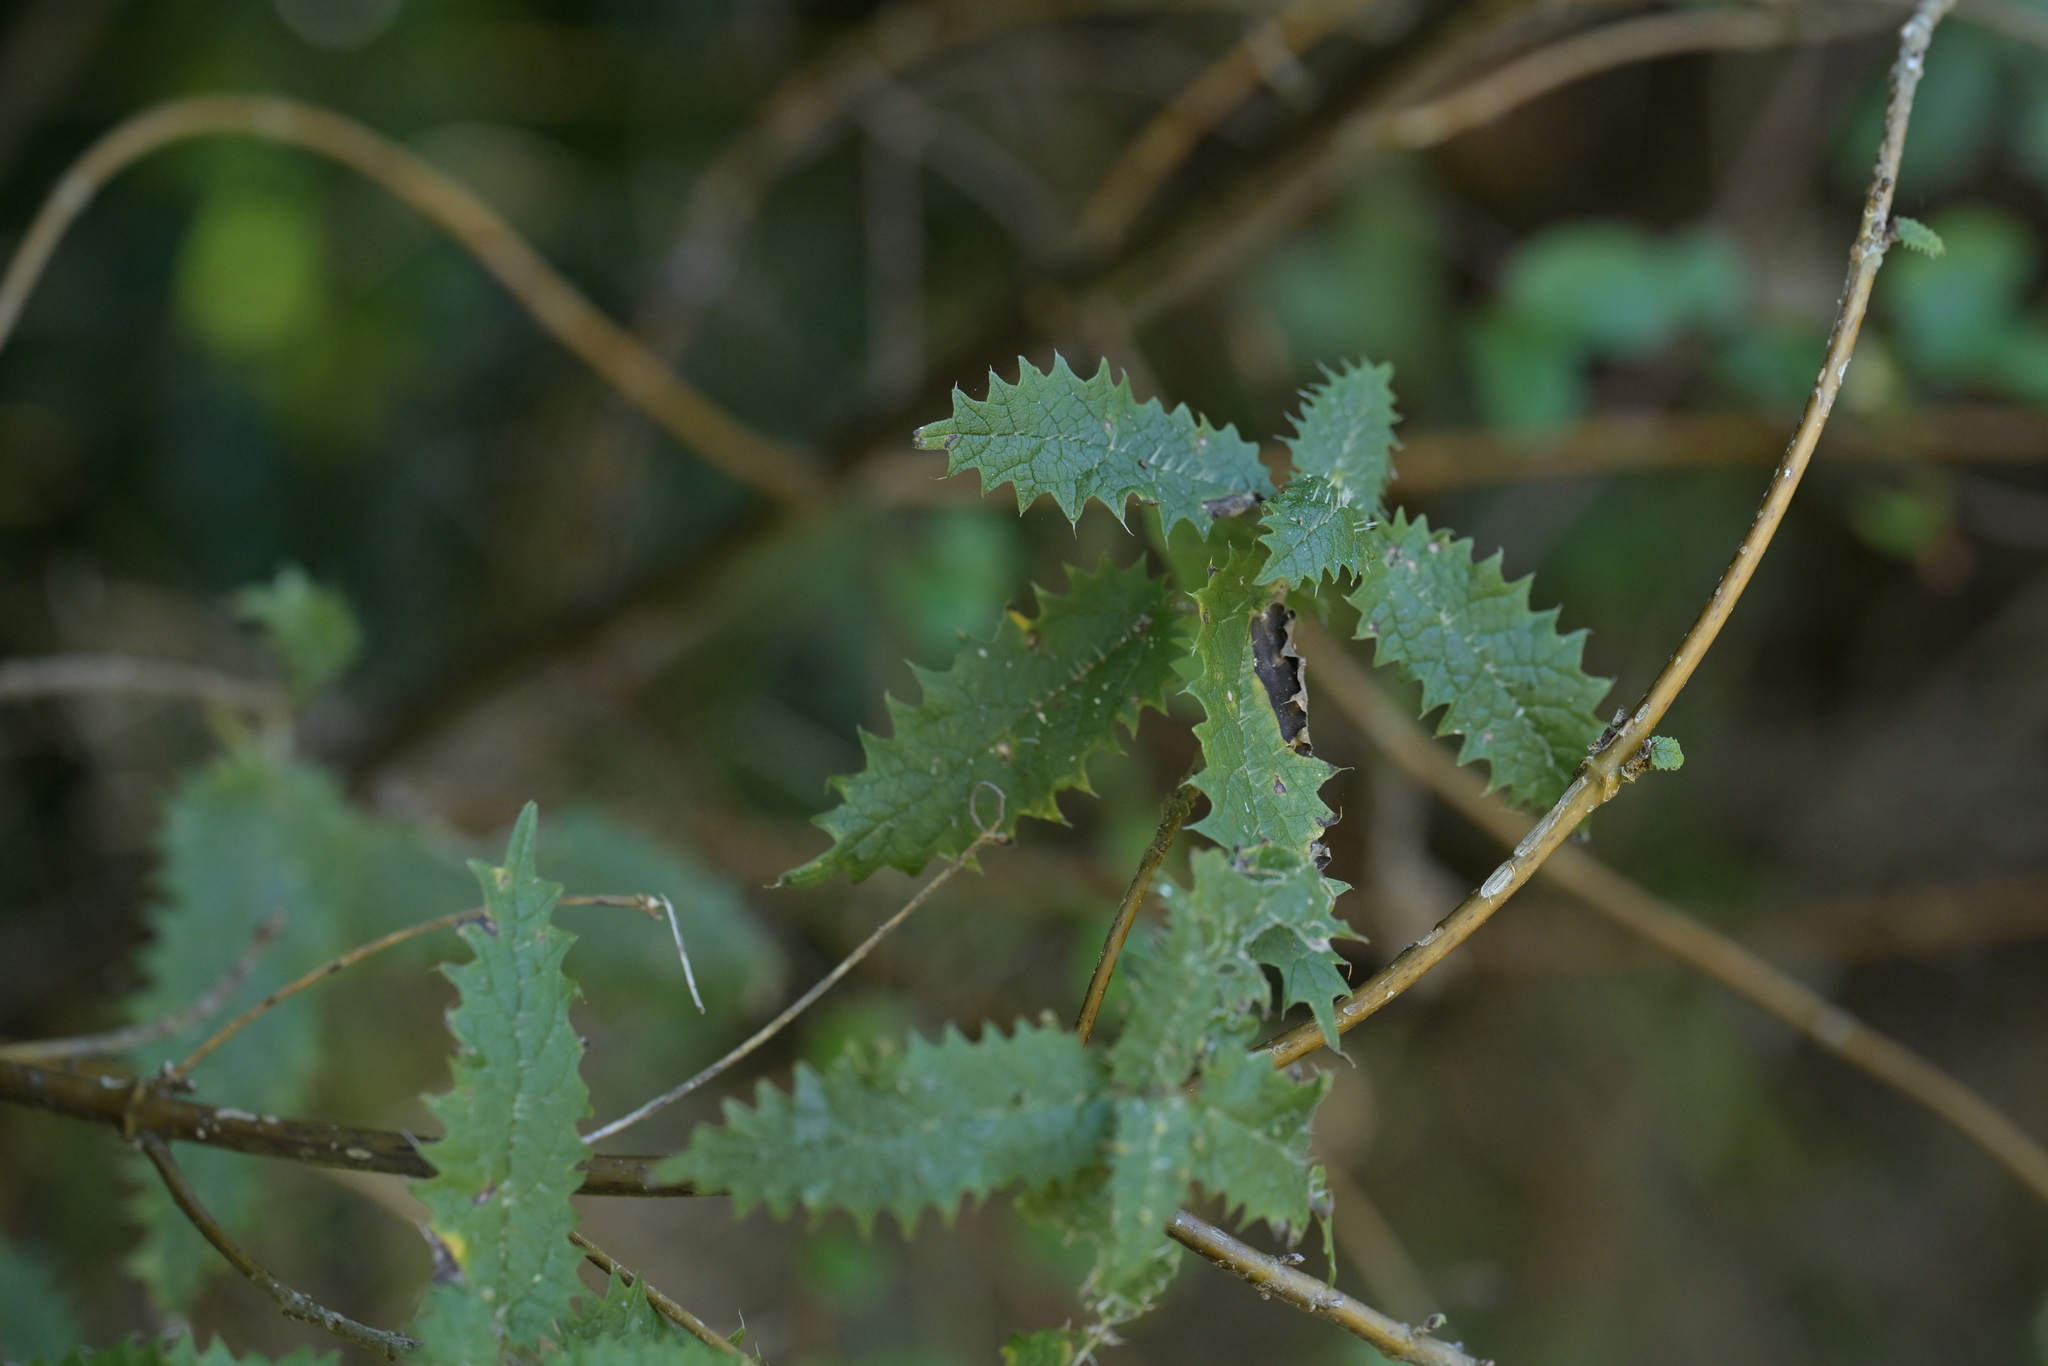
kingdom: Plantae
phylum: Tracheophyta
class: Magnoliopsida
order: Rosales
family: Urticaceae
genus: Urtica
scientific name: Urtica ferox
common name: Tree nettle
